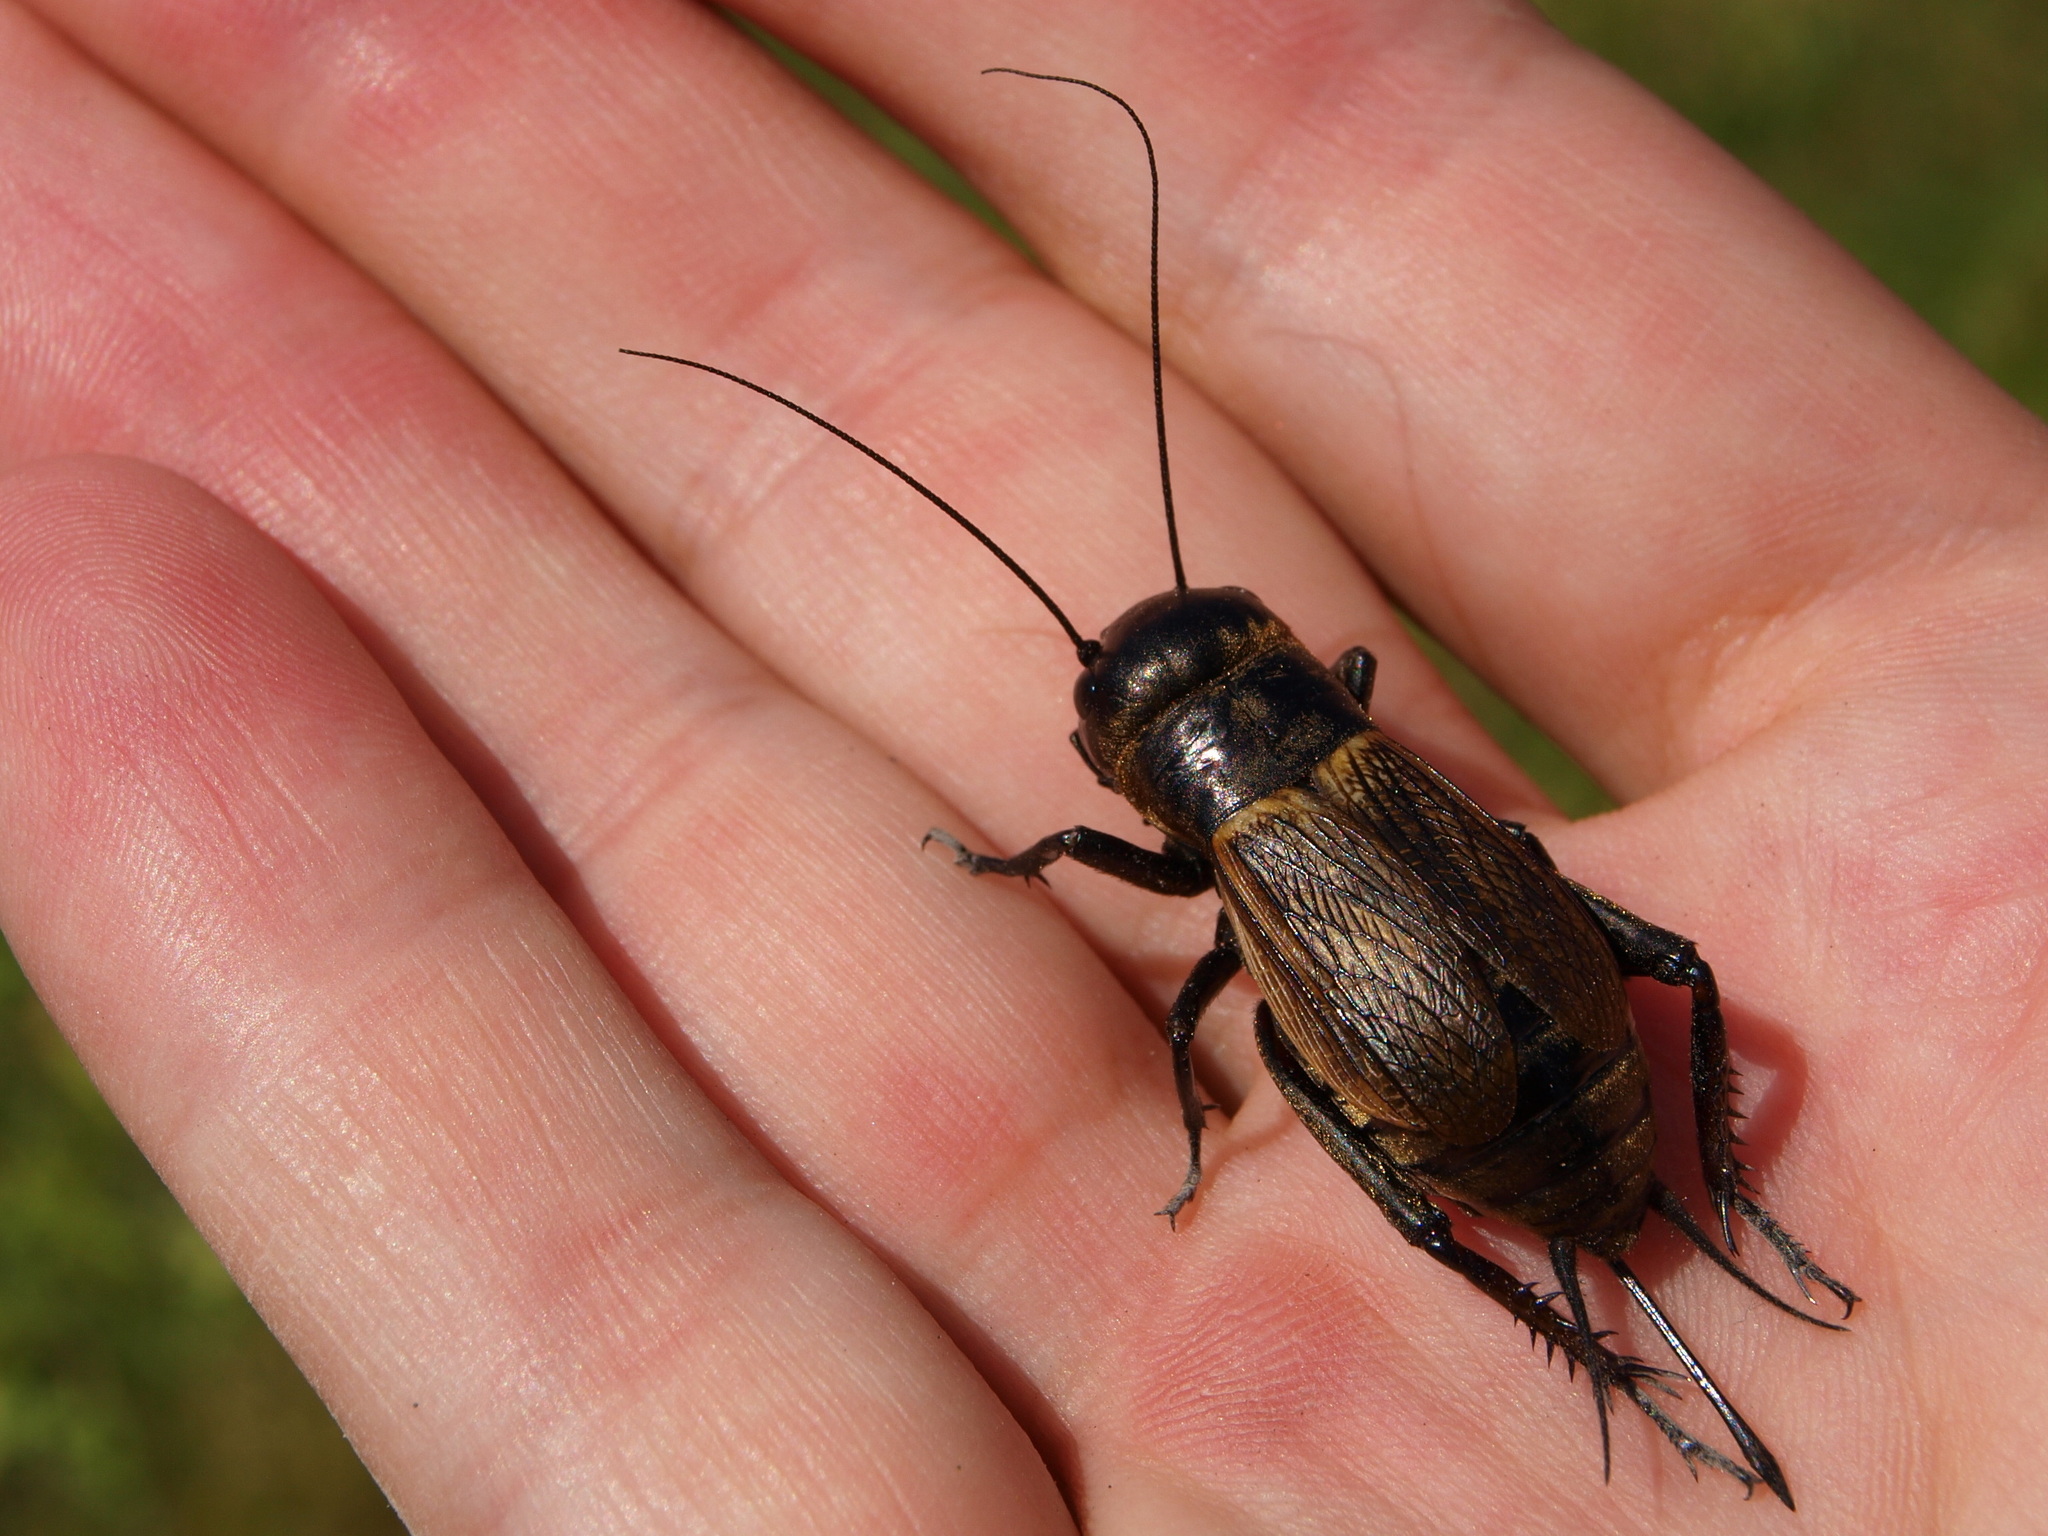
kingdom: Animalia
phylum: Arthropoda
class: Insecta
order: Orthoptera
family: Gryllidae
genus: Gryllus
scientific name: Gryllus campestris
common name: Field cricket
